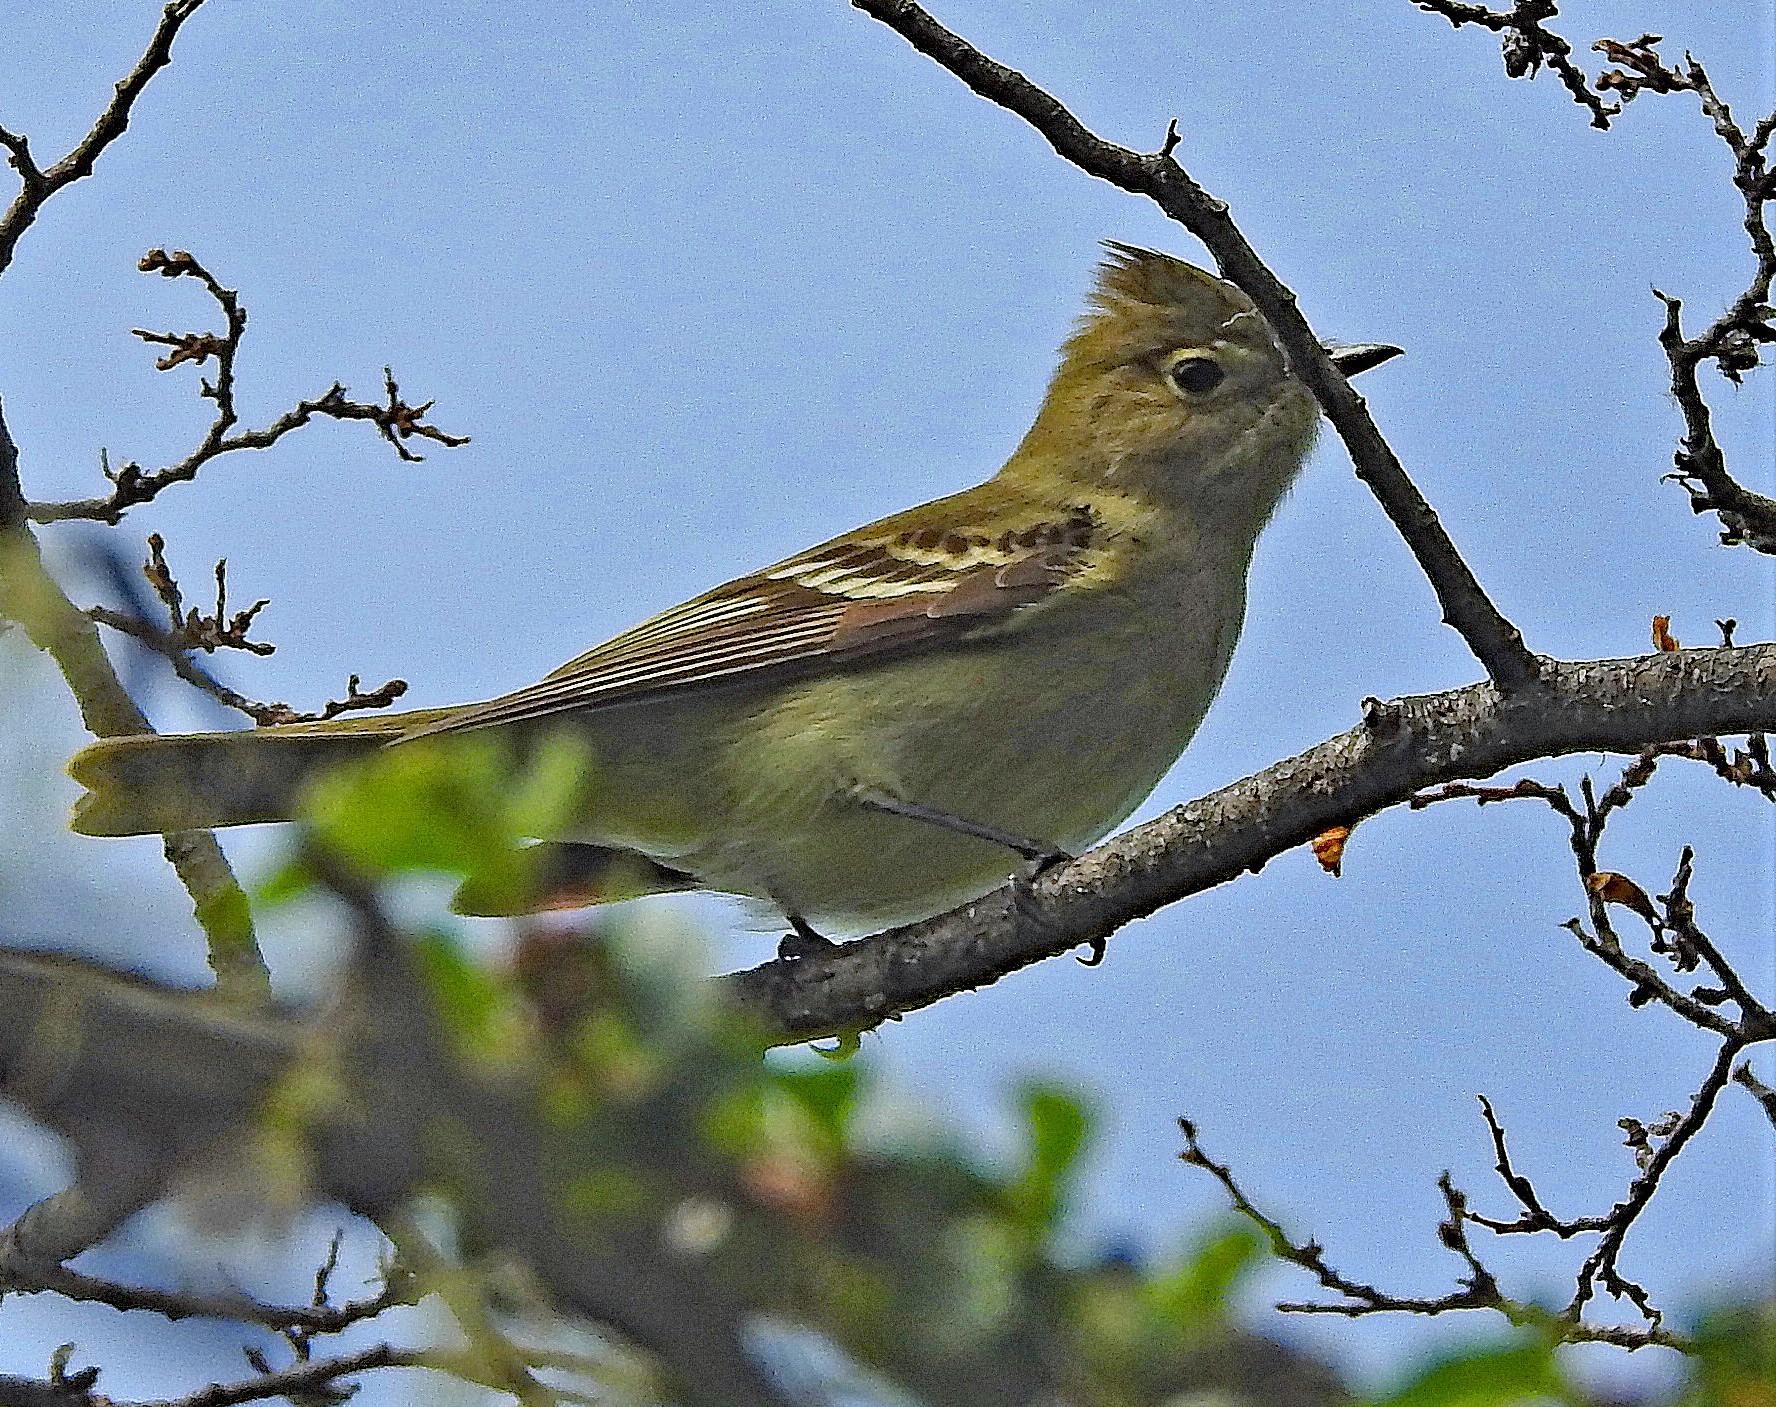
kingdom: Animalia
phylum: Chordata
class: Aves
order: Passeriformes
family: Tyrannidae
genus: Elaenia
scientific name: Elaenia albiceps
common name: White-crested elaenia
